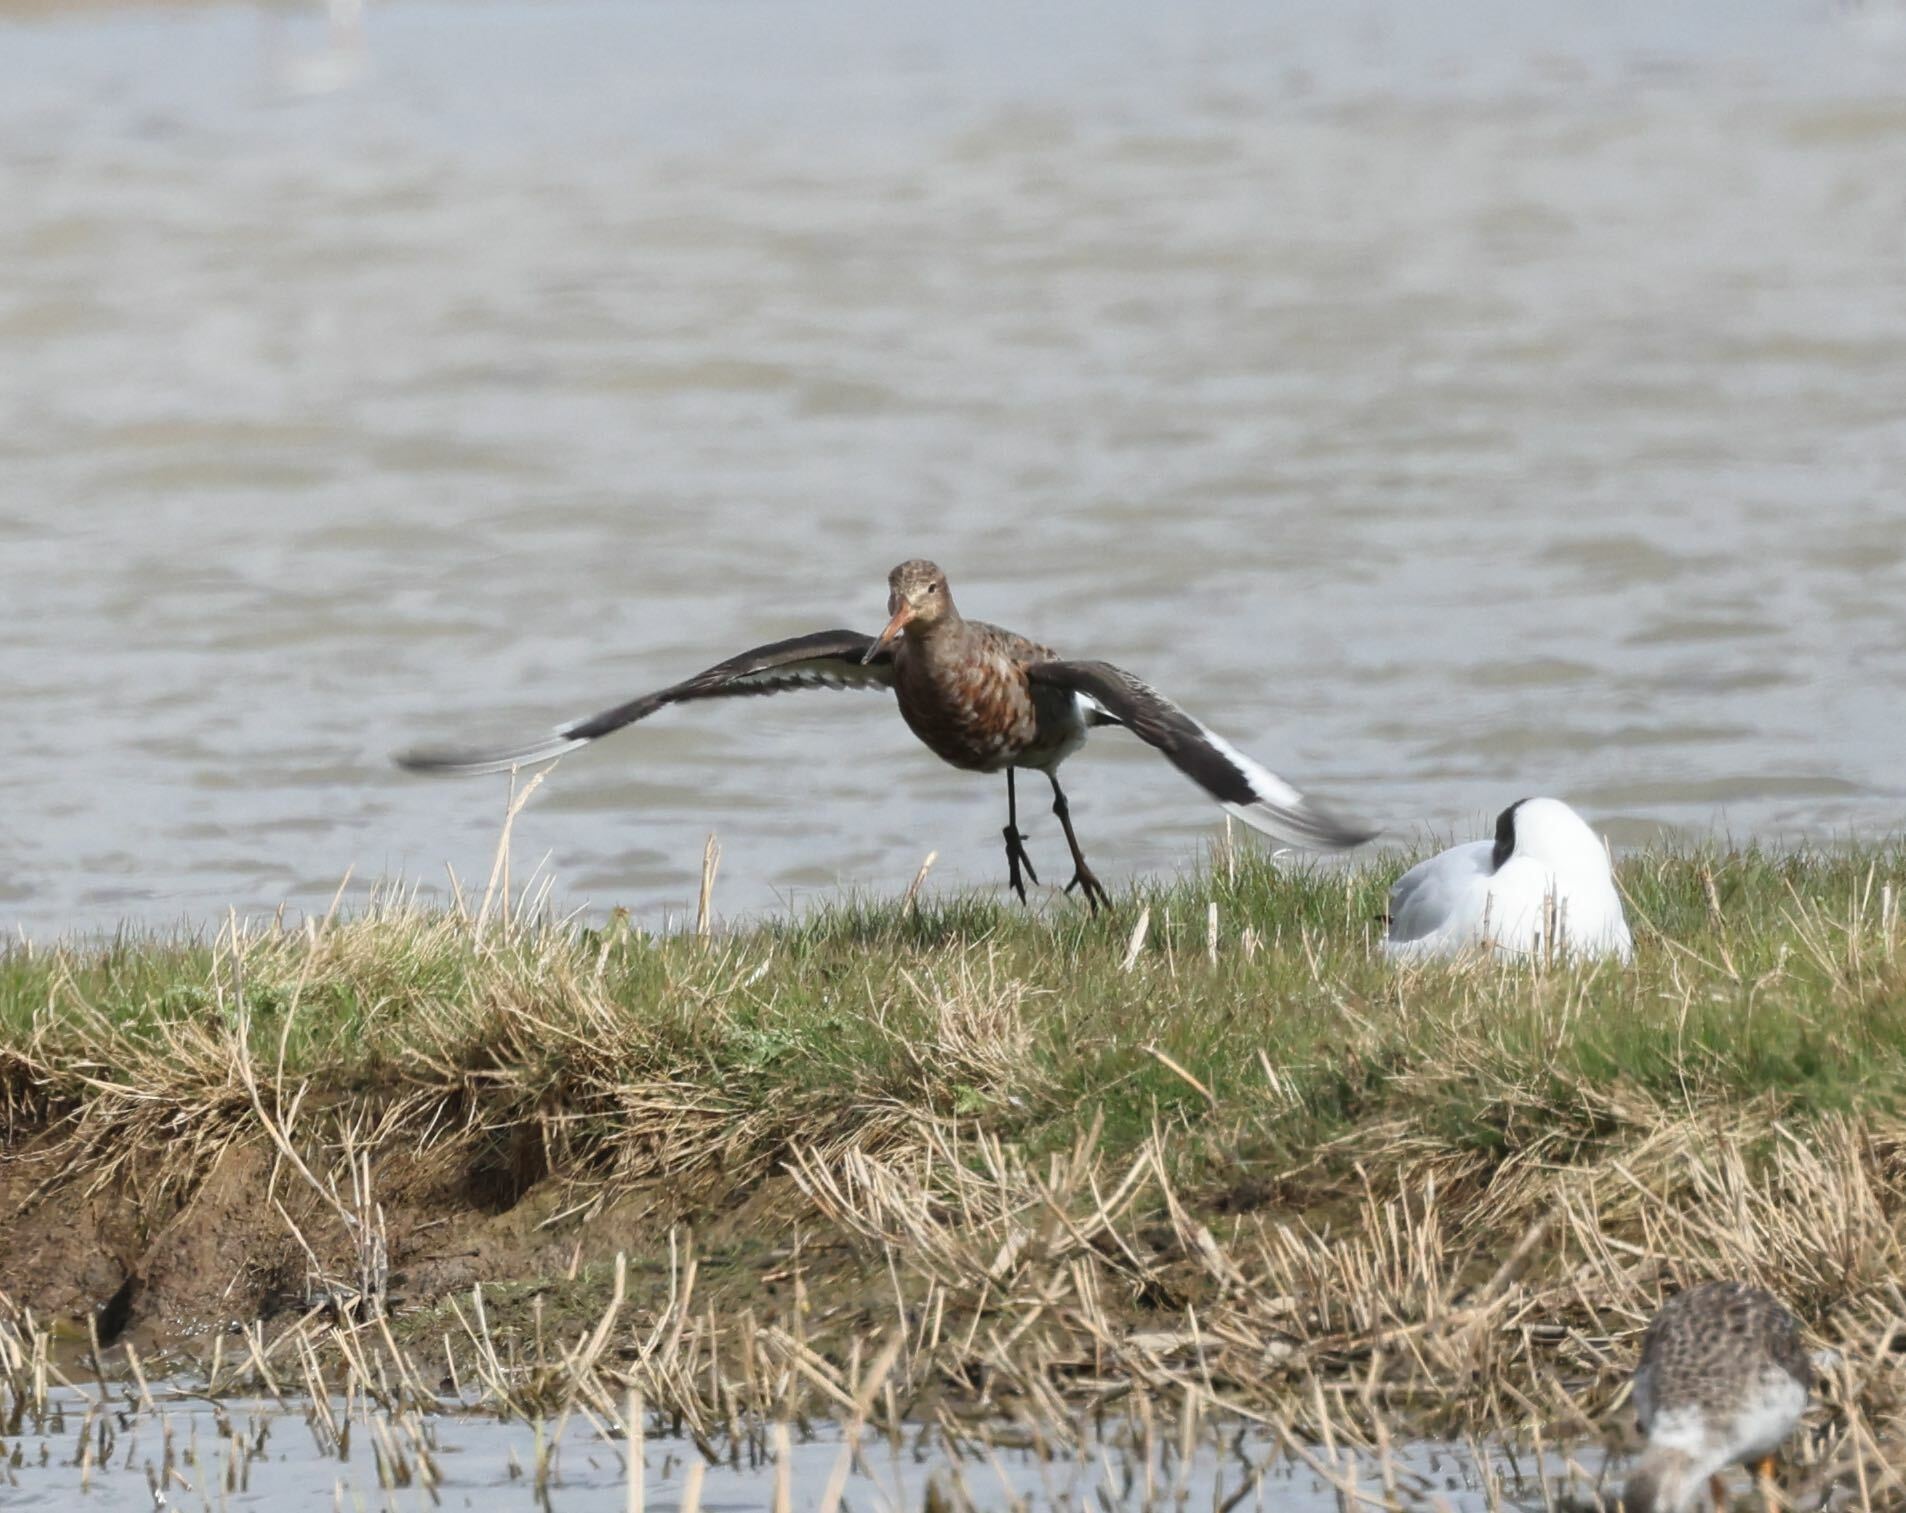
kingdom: Animalia
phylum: Chordata
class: Aves
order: Charadriiformes
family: Scolopacidae
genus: Limosa
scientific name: Limosa limosa
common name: Black-tailed godwit
